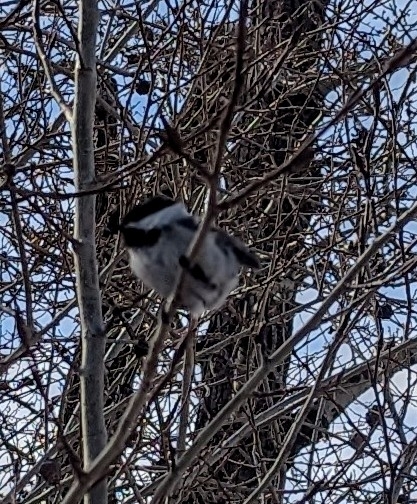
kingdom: Animalia
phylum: Chordata
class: Aves
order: Passeriformes
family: Paridae
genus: Poecile
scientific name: Poecile atricapillus
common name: Black-capped chickadee
